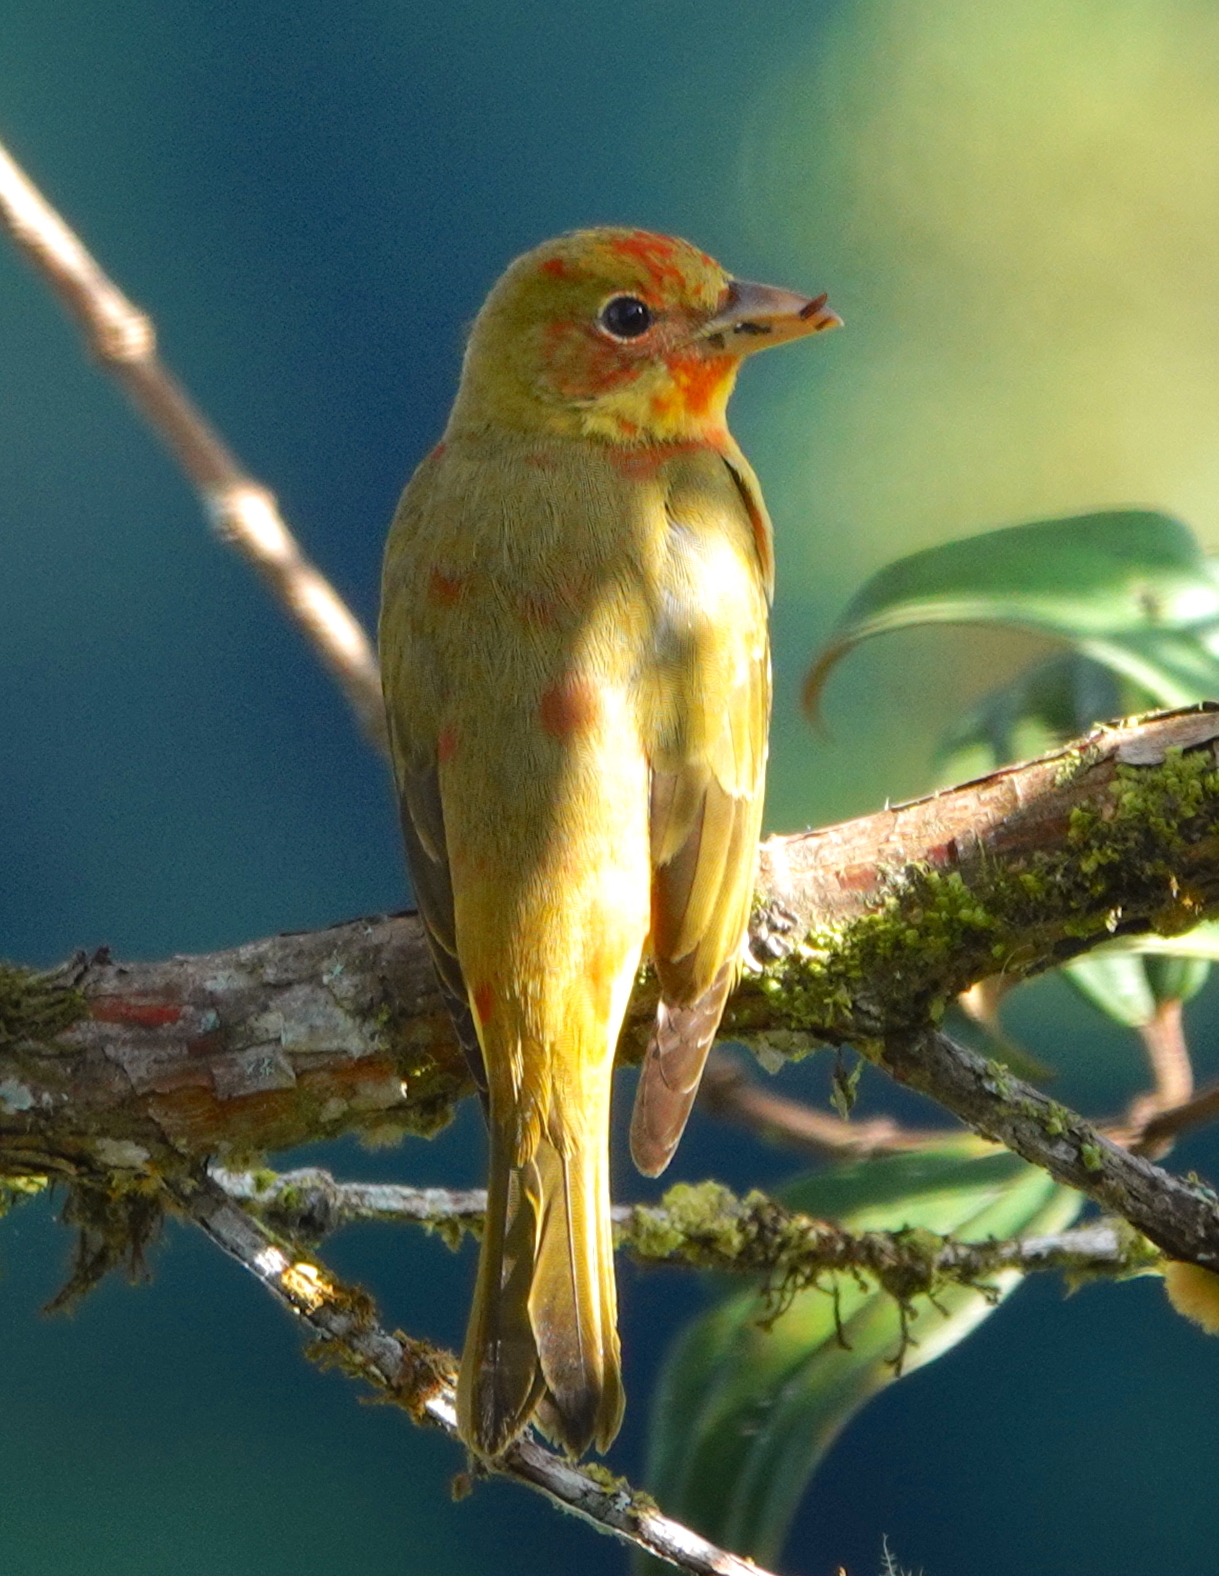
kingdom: Animalia
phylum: Chordata
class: Aves
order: Passeriformes
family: Cardinalidae
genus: Piranga
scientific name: Piranga rubra
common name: Summer tanager
